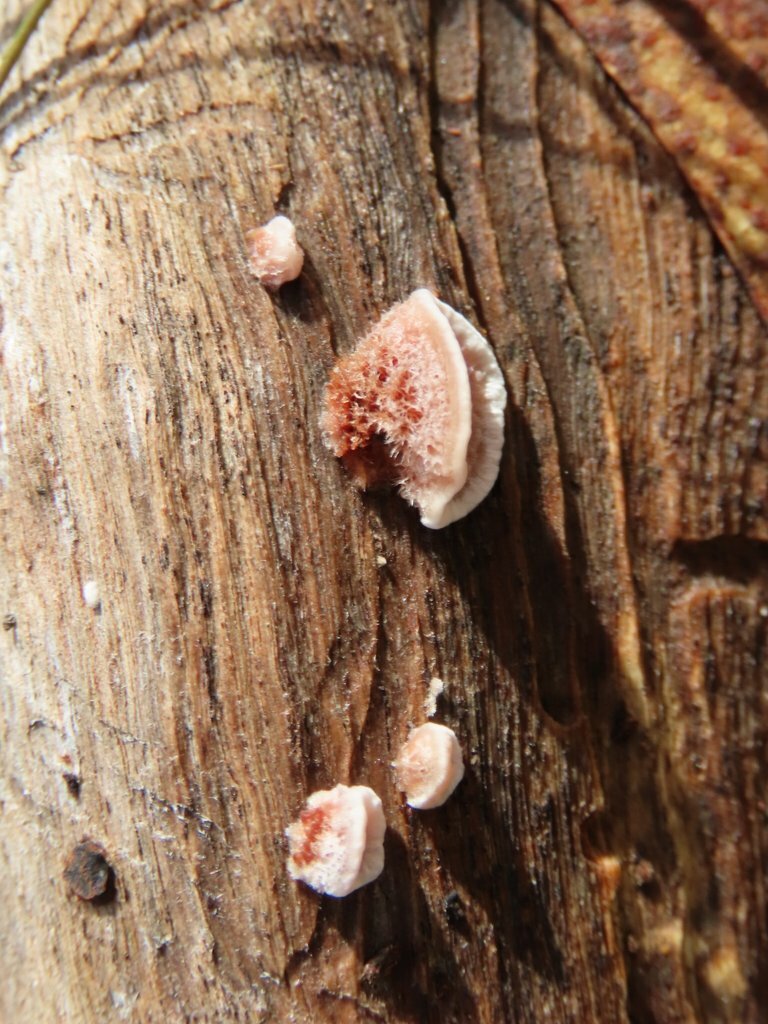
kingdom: Fungi
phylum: Basidiomycota
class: Agaricomycetes
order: Russulales
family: Stereaceae
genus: Xylobolus
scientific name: Xylobolus illudens
